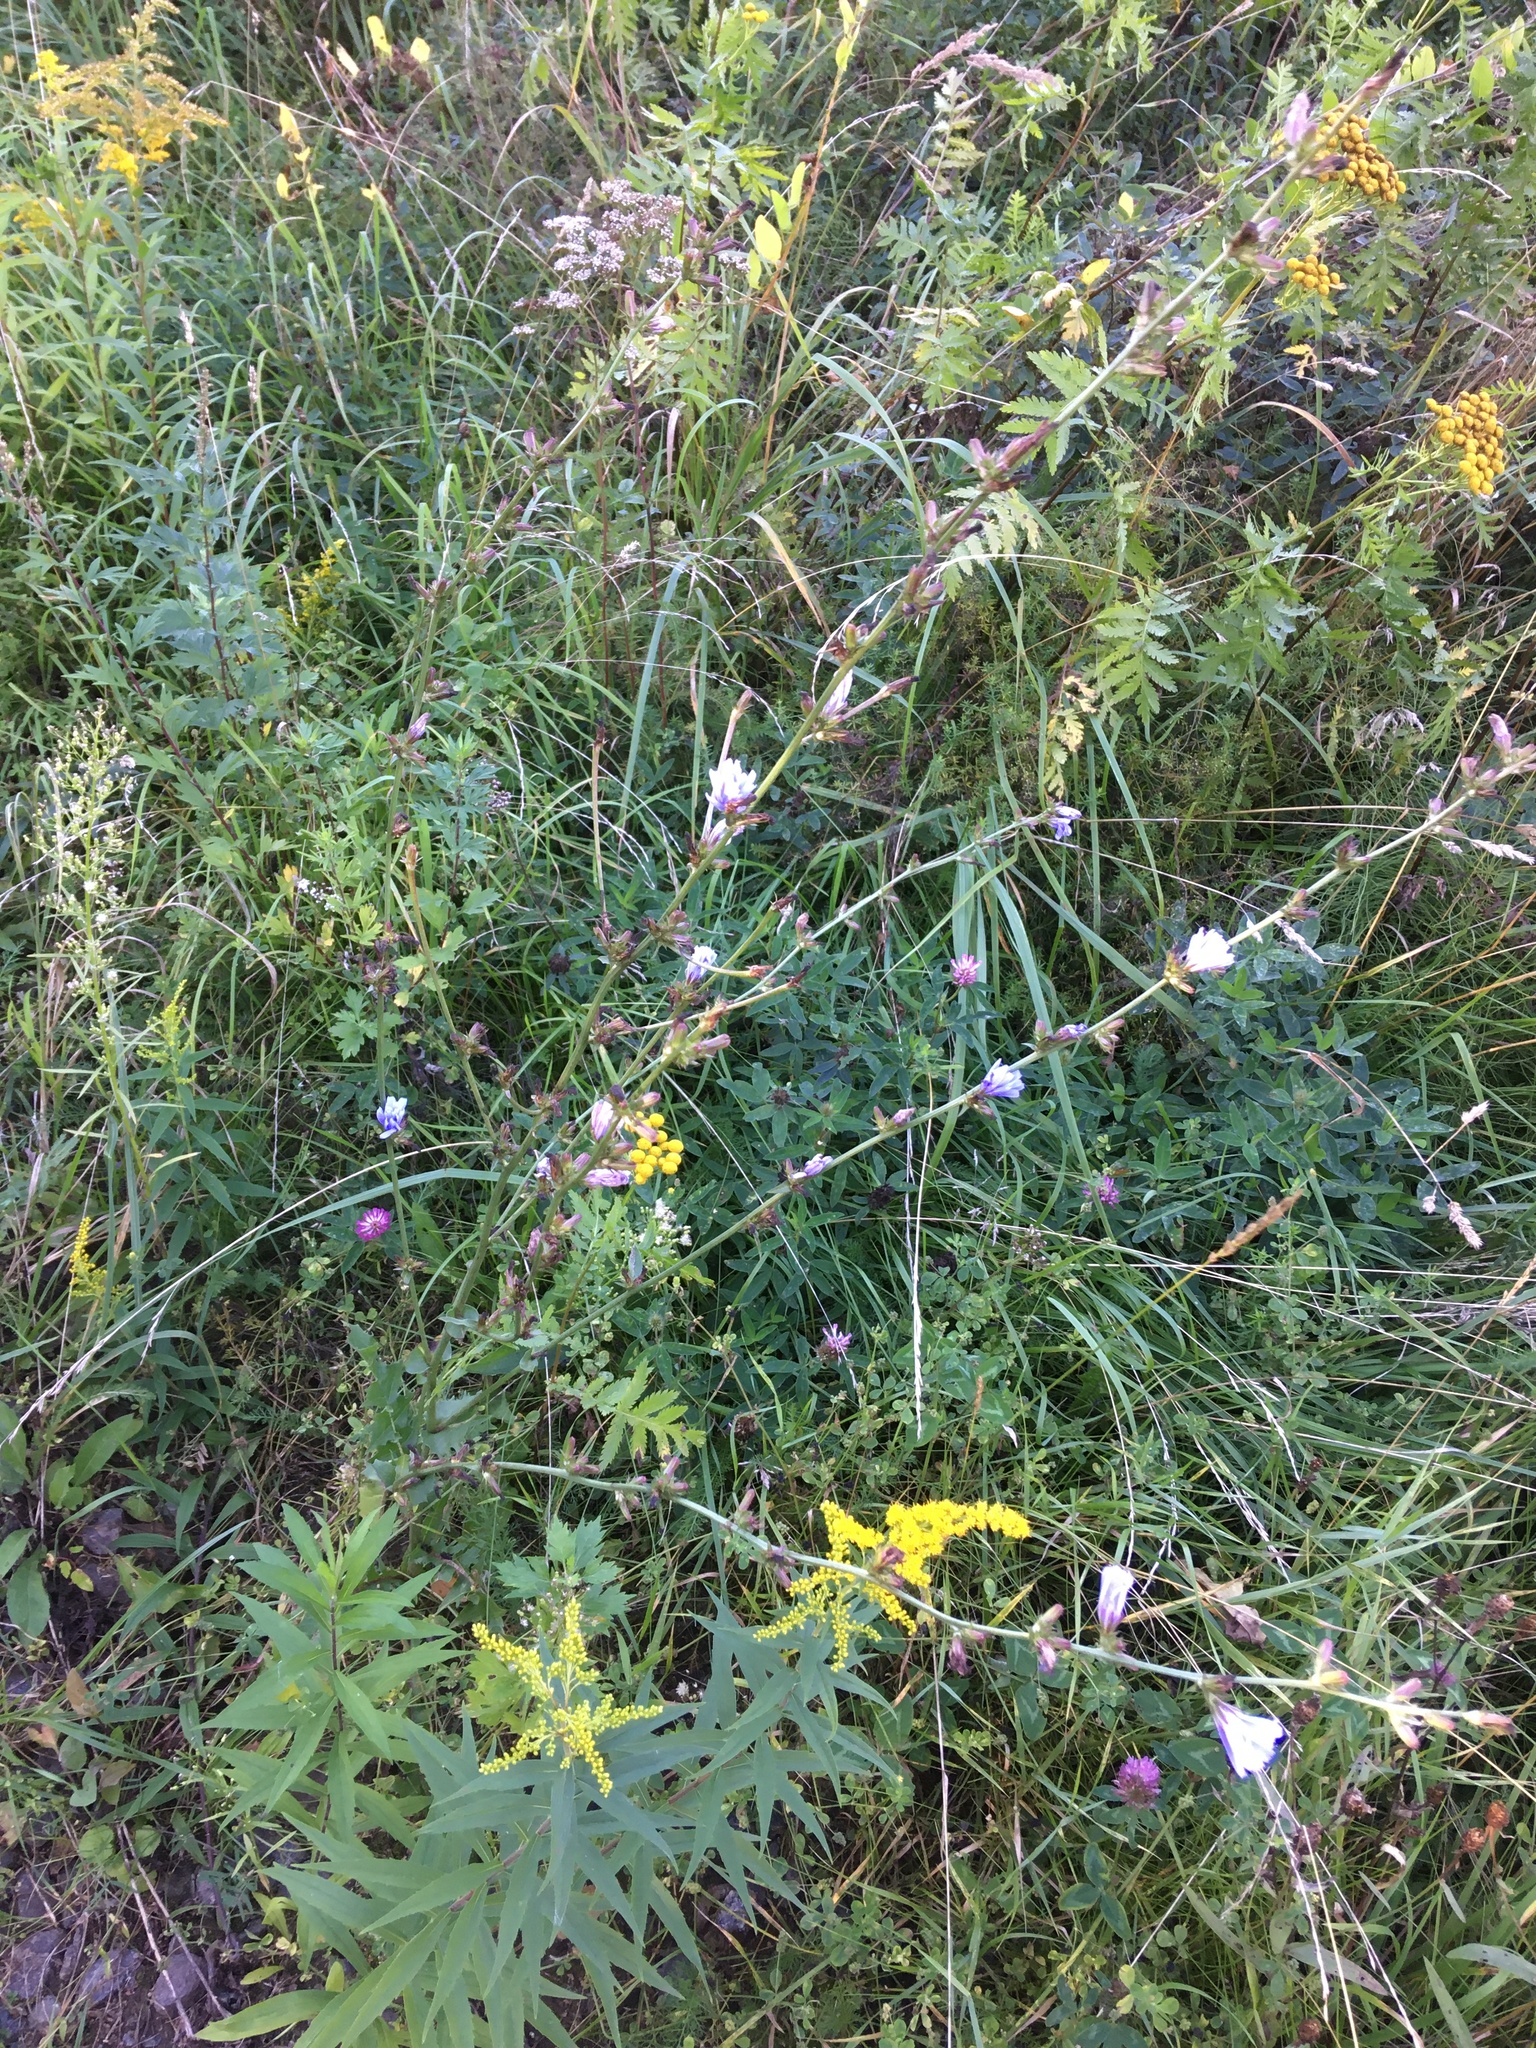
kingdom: Plantae
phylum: Tracheophyta
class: Magnoliopsida
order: Asterales
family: Asteraceae
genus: Cichorium
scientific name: Cichorium intybus
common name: Chicory
